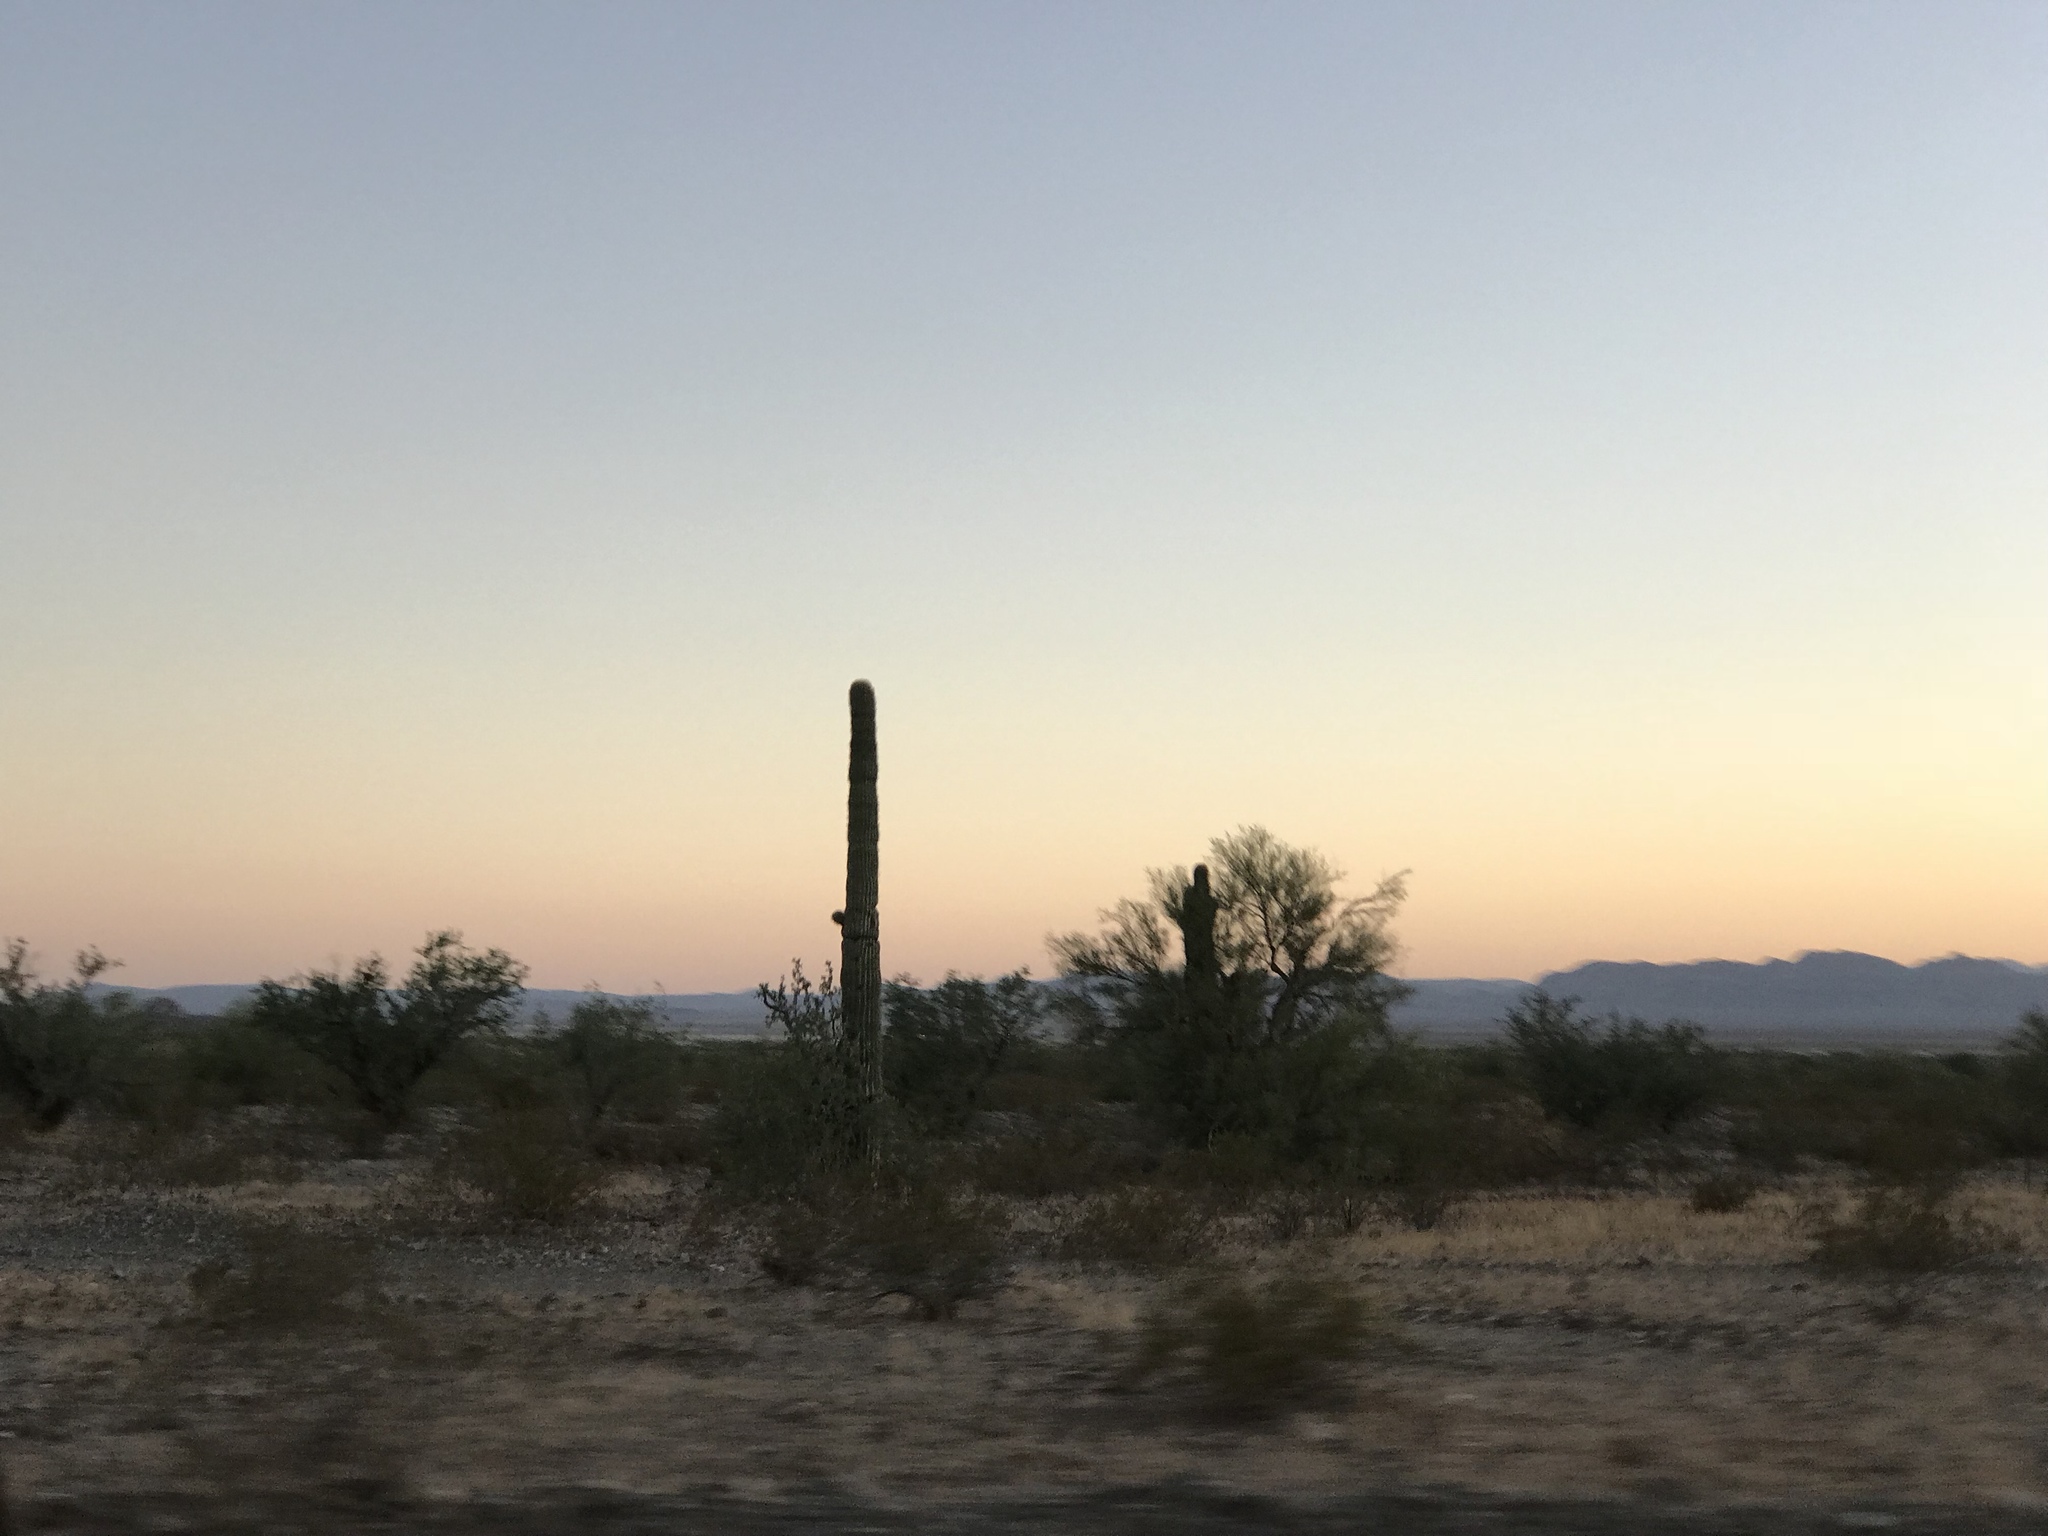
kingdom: Plantae
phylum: Tracheophyta
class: Magnoliopsida
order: Caryophyllales
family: Cactaceae
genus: Carnegiea
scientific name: Carnegiea gigantea
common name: Saguaro
